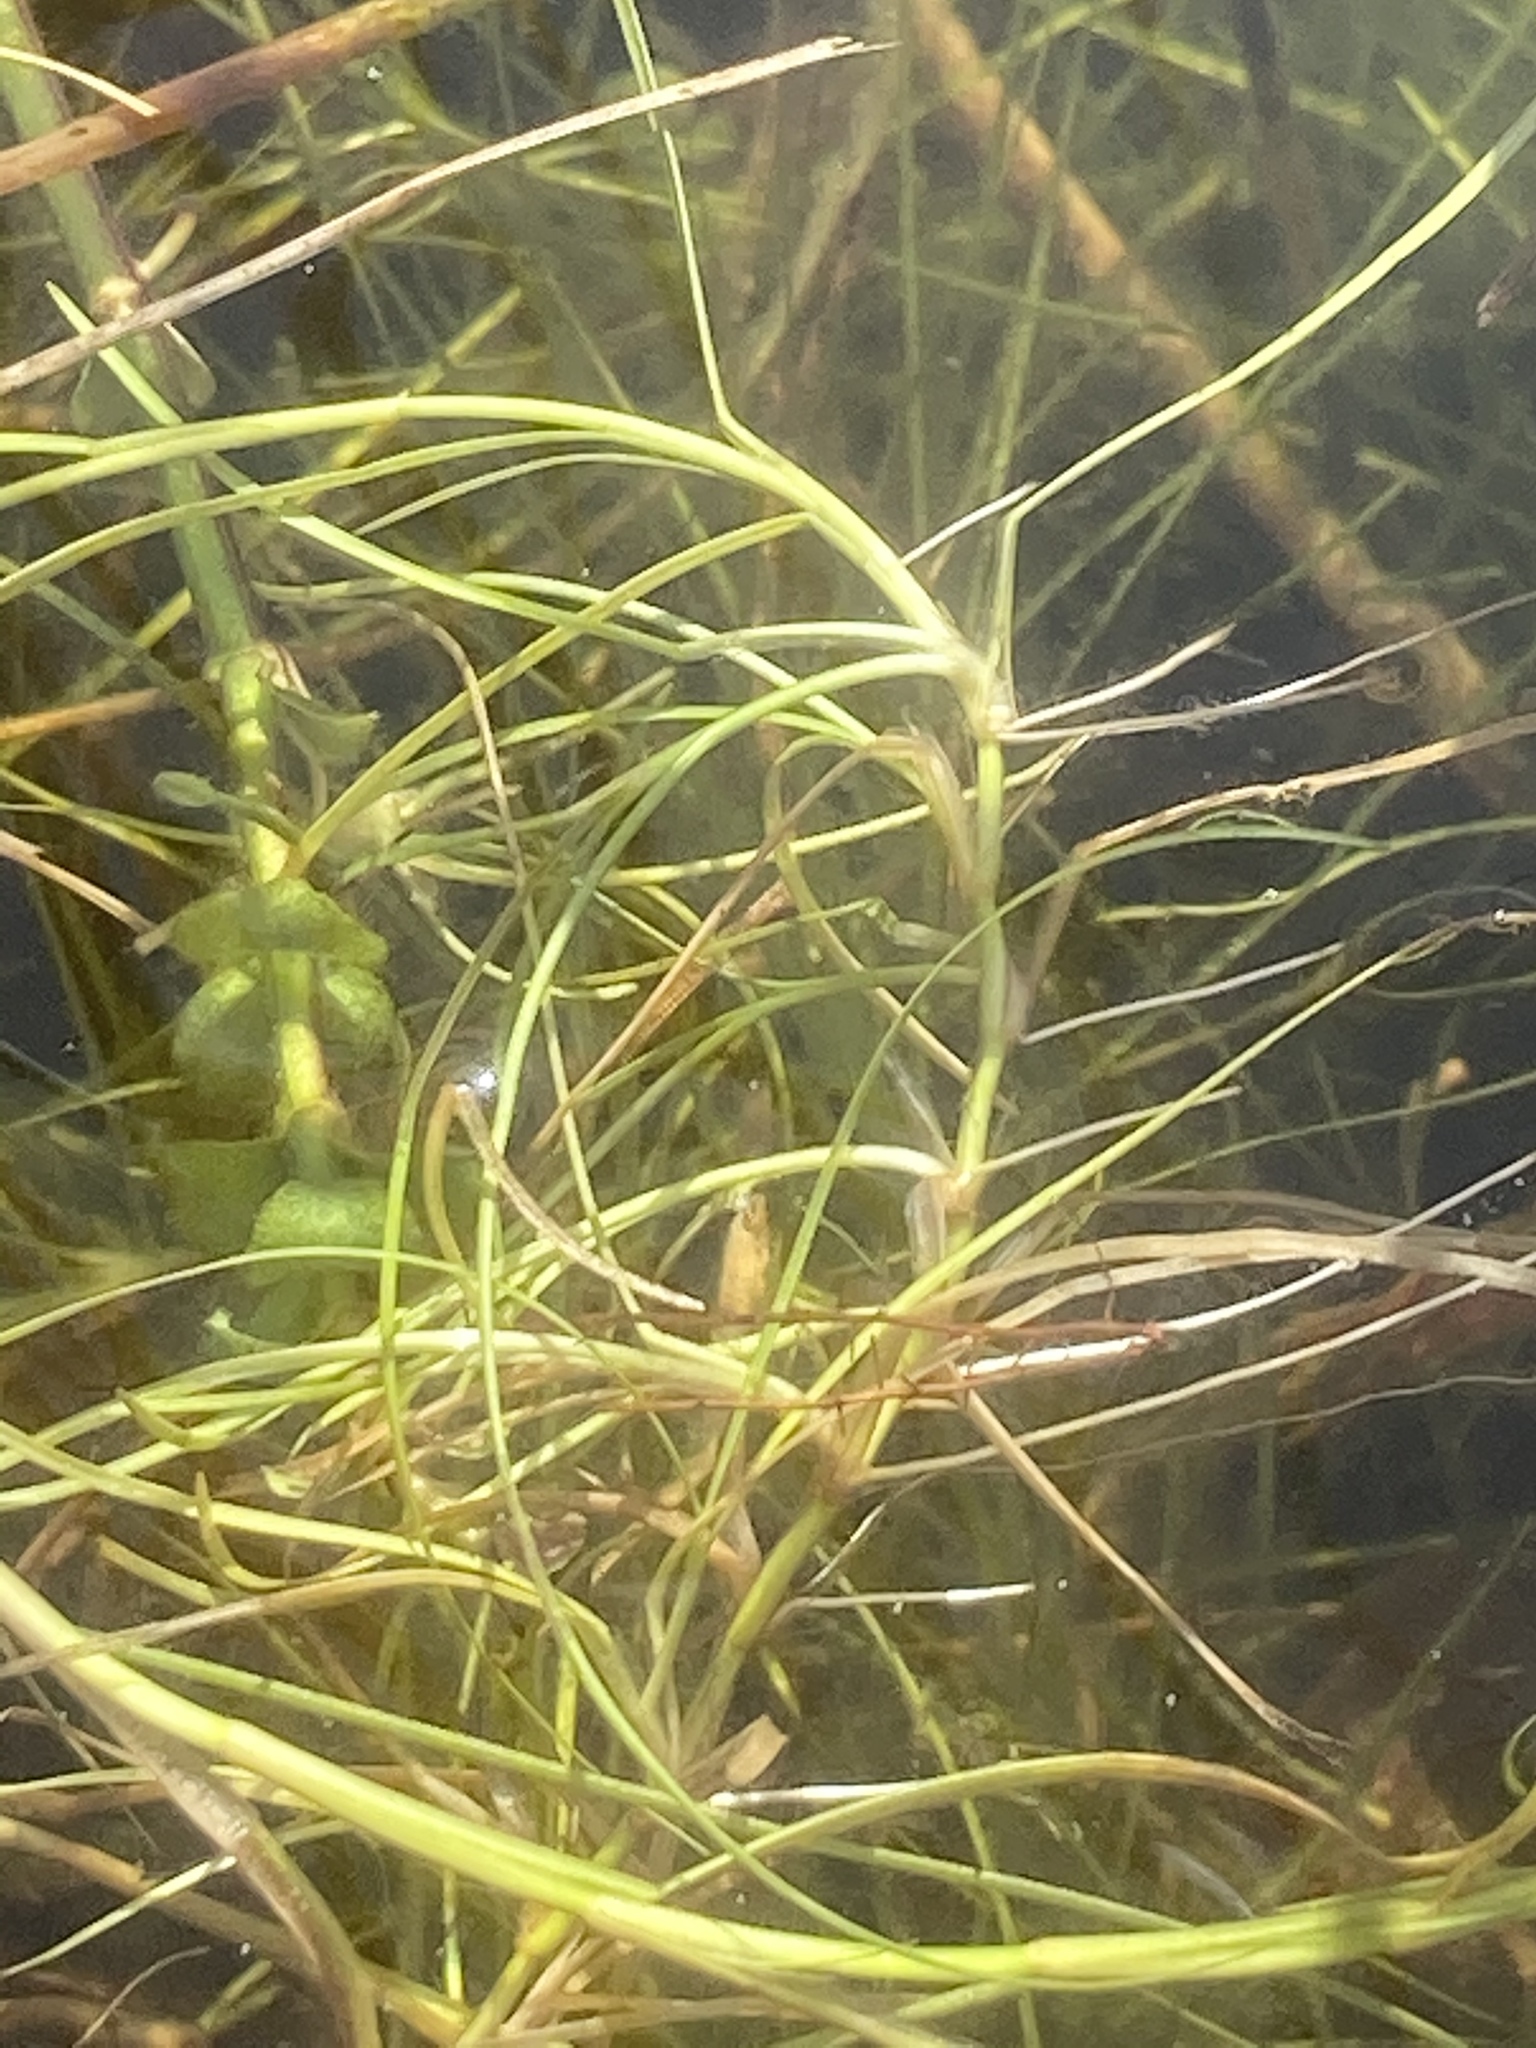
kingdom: Plantae
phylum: Tracheophyta
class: Liliopsida
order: Poales
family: Cyperaceae
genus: Isolepis
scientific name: Isolepis fluitans
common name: Floating club-rush
